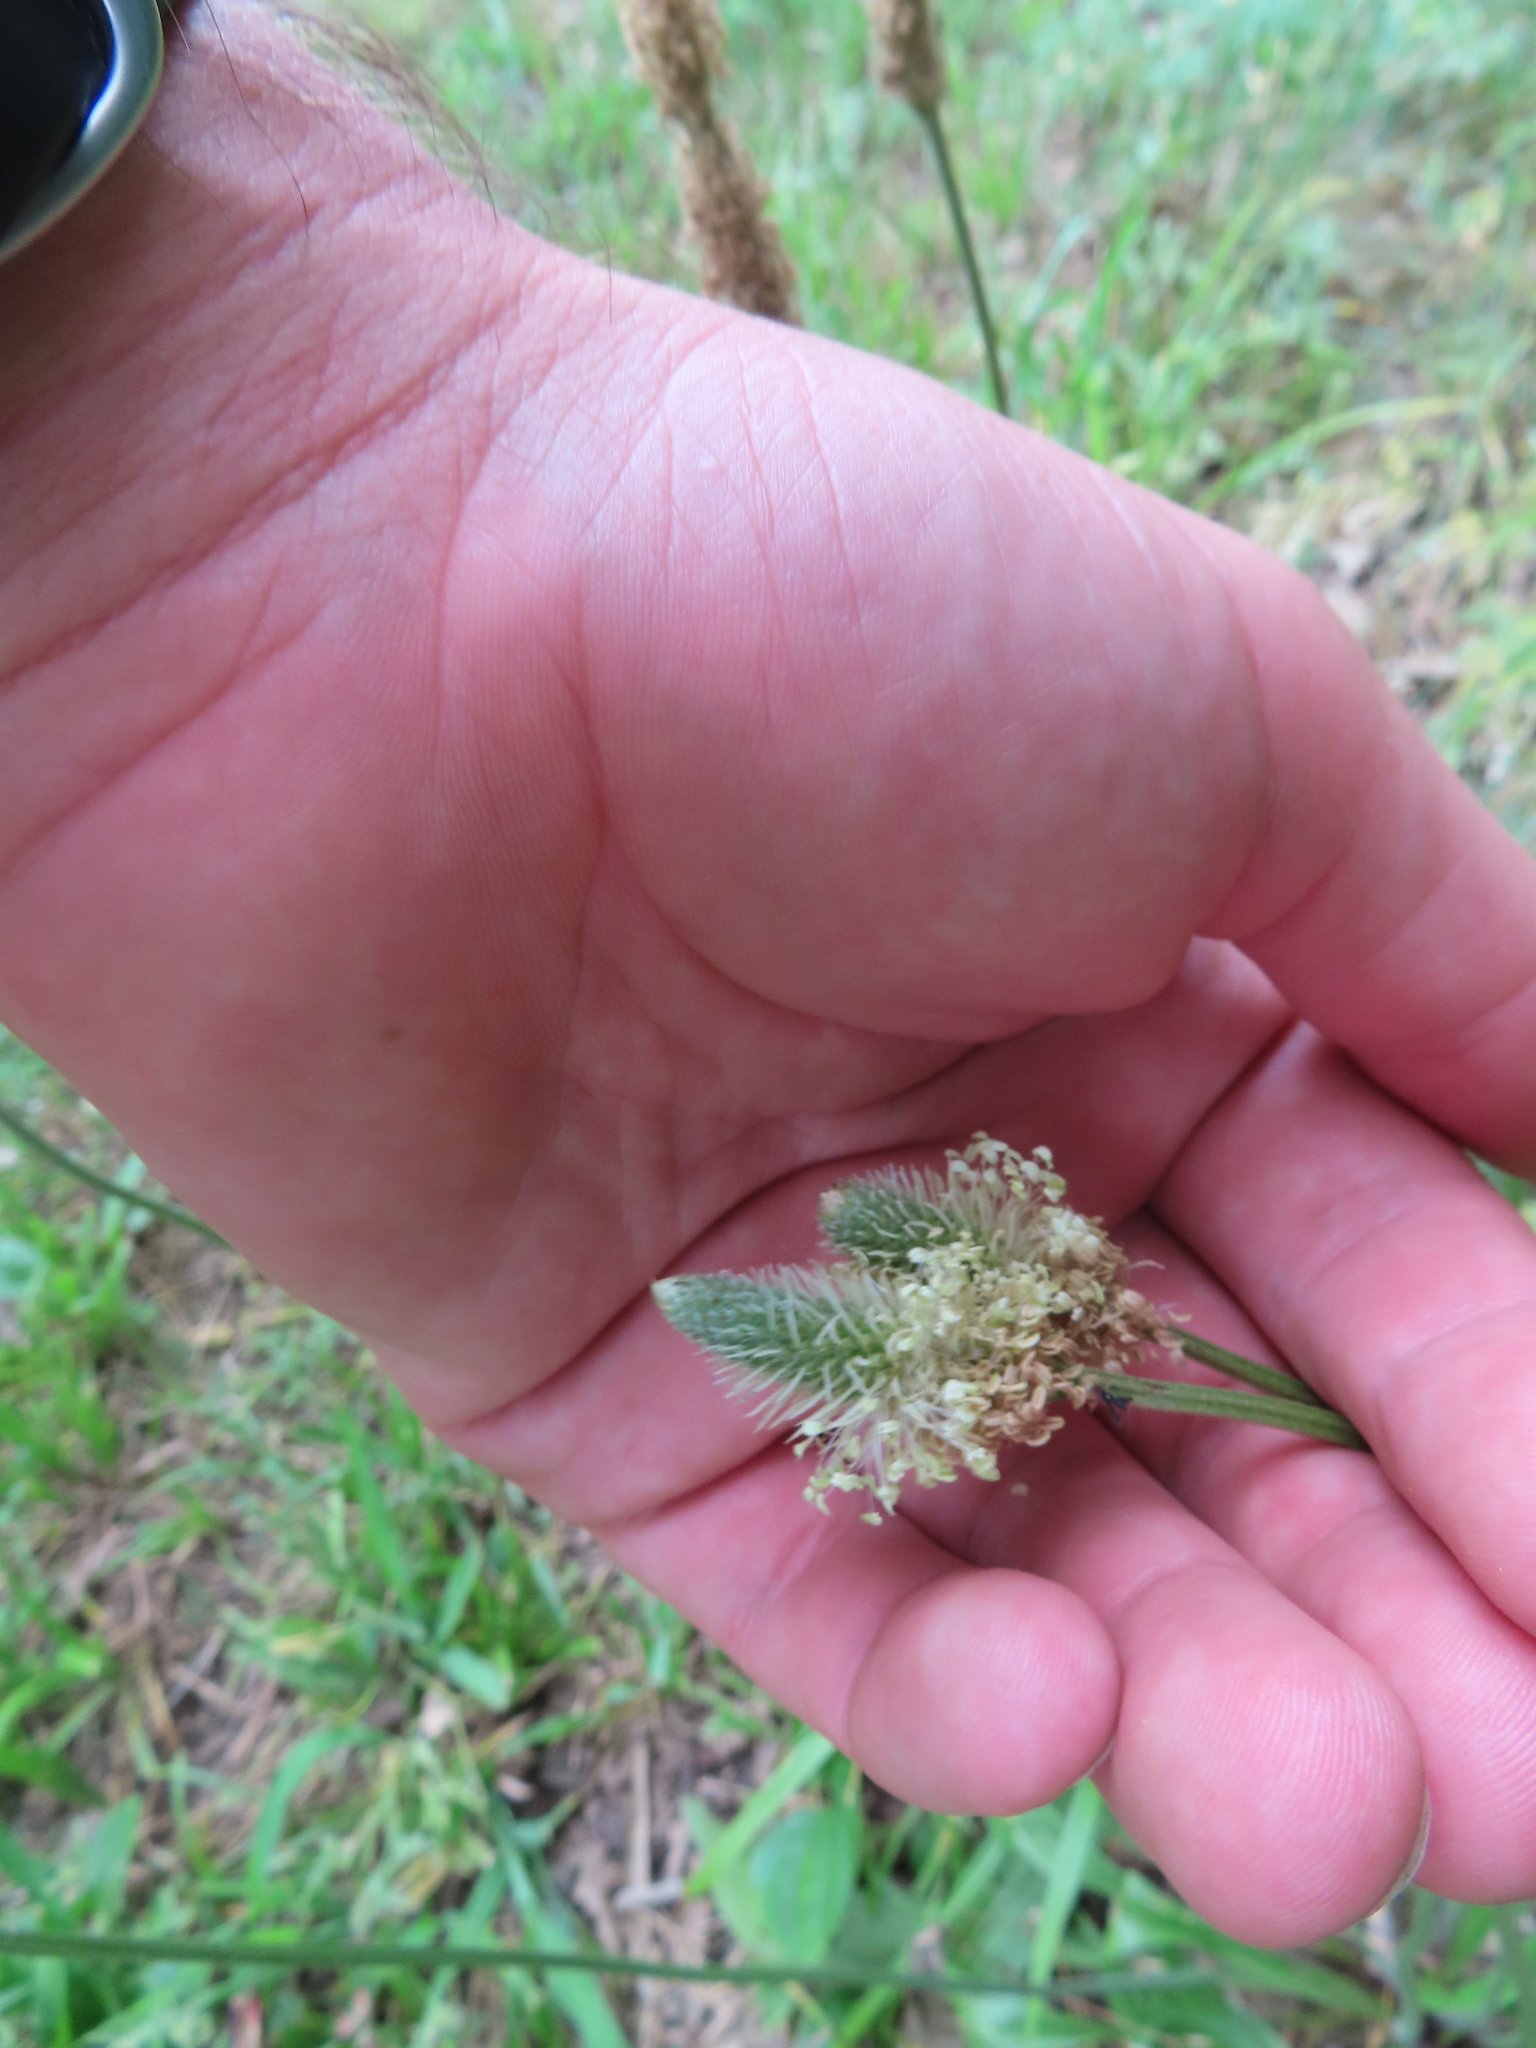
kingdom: Plantae
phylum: Tracheophyta
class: Magnoliopsida
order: Lamiales
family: Plantaginaceae
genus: Plantago
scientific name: Plantago lanceolata
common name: Ribwort plantain
